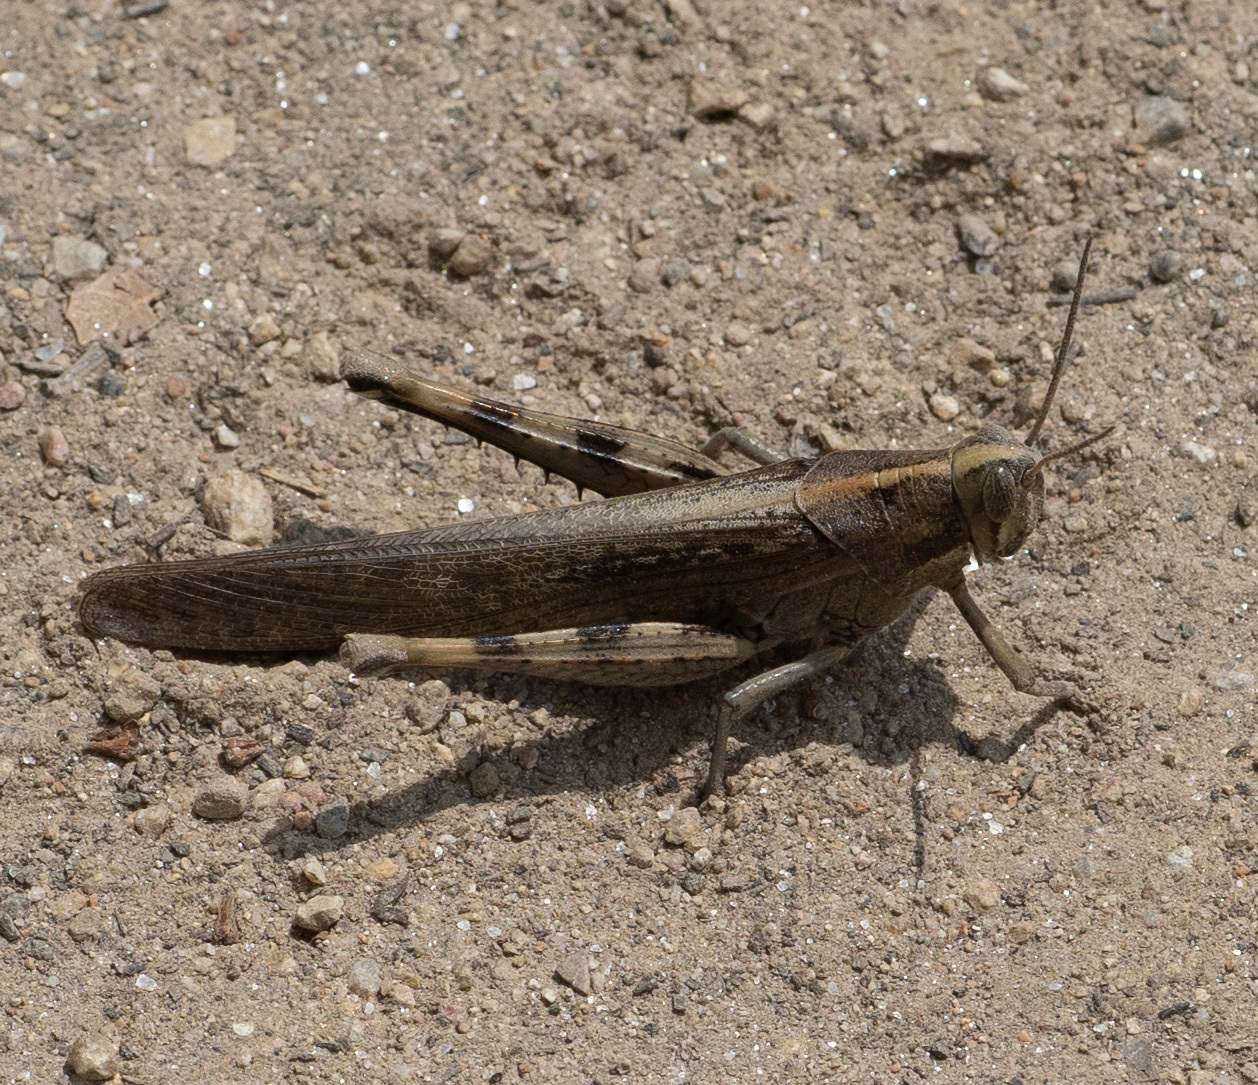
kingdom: Animalia
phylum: Arthropoda
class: Insecta
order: Orthoptera
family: Acrididae
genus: Schistocerca
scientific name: Schistocerca nitens
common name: Vagrant grasshopper
